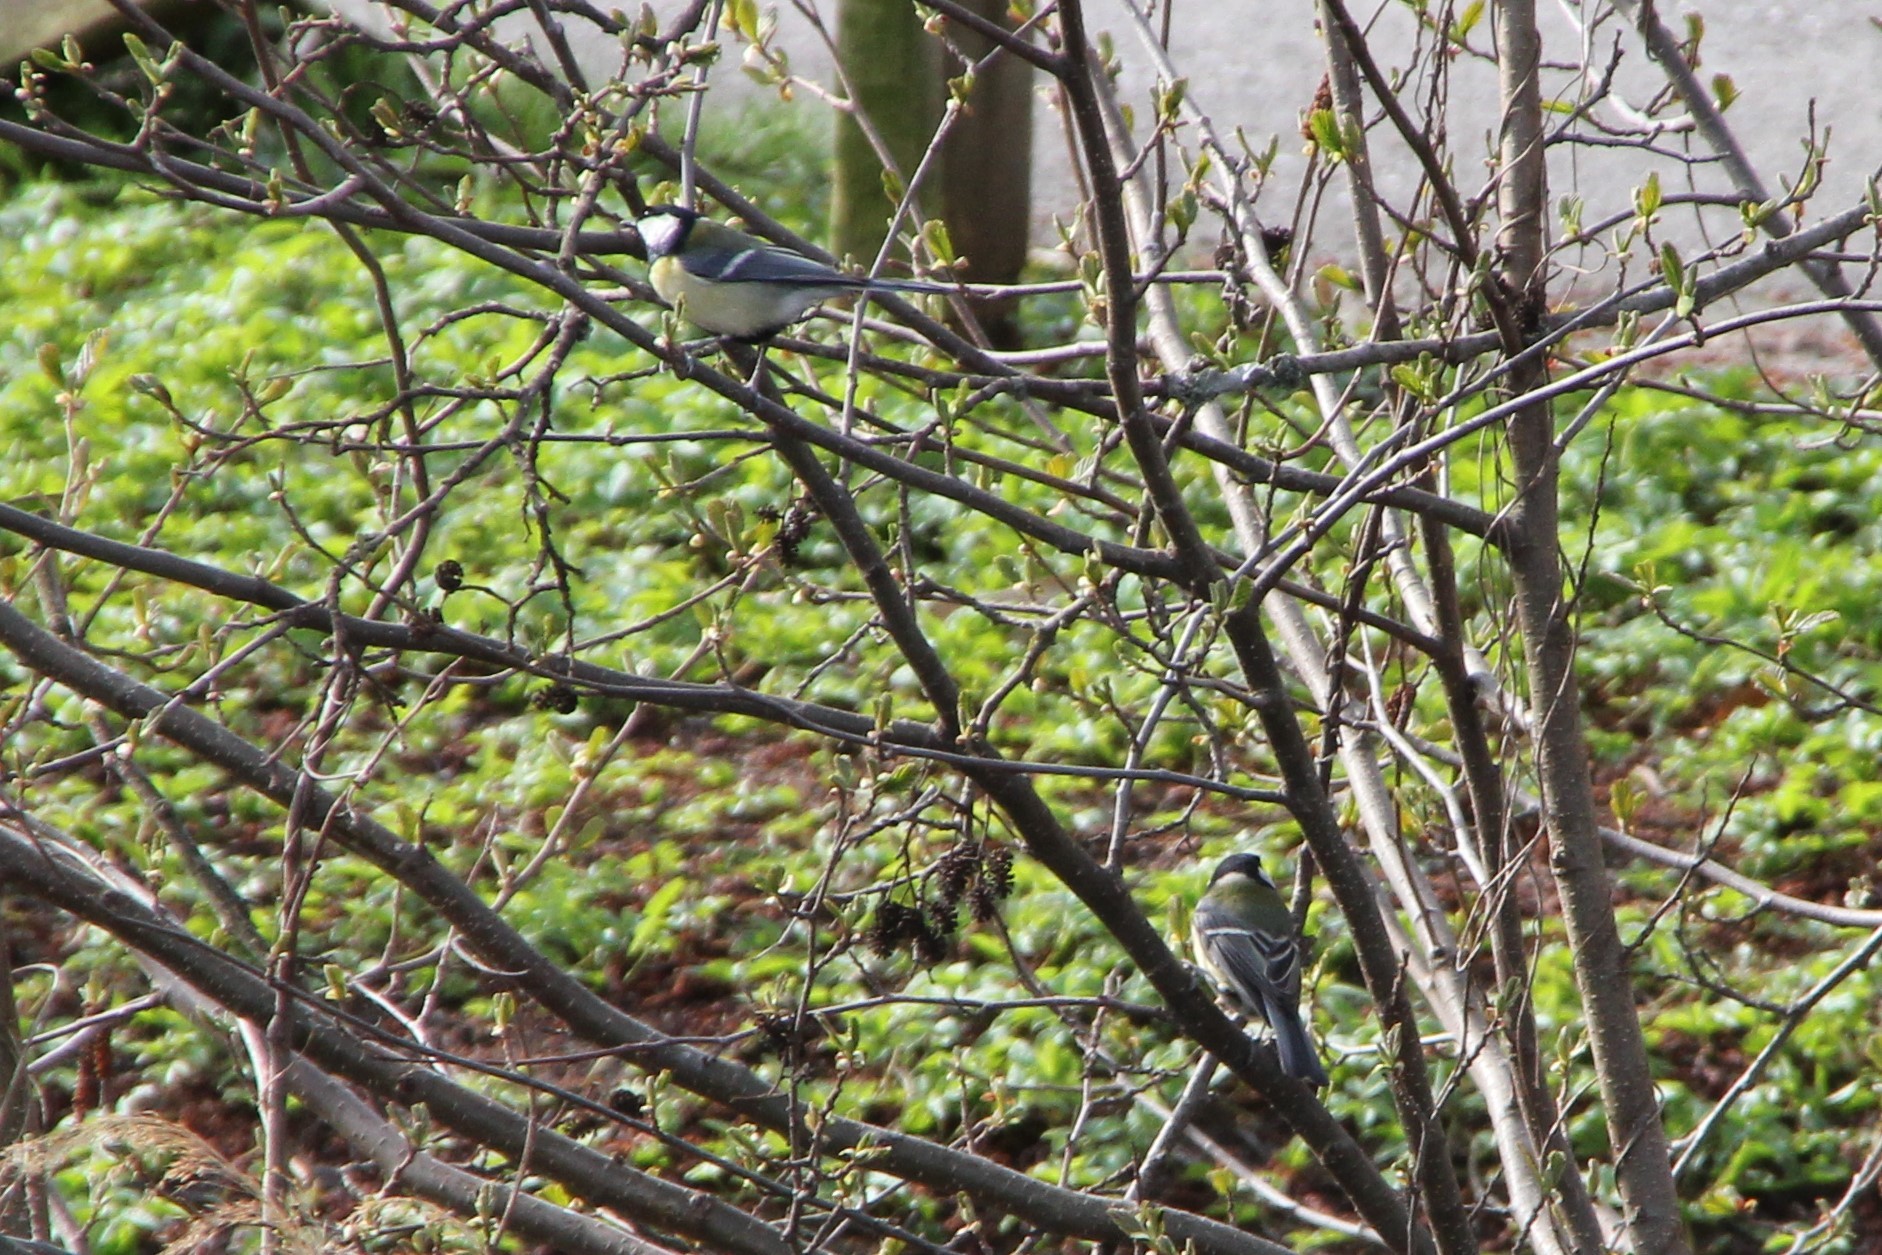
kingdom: Animalia
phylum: Chordata
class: Aves
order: Passeriformes
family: Paridae
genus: Parus
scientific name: Parus major
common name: Great tit
